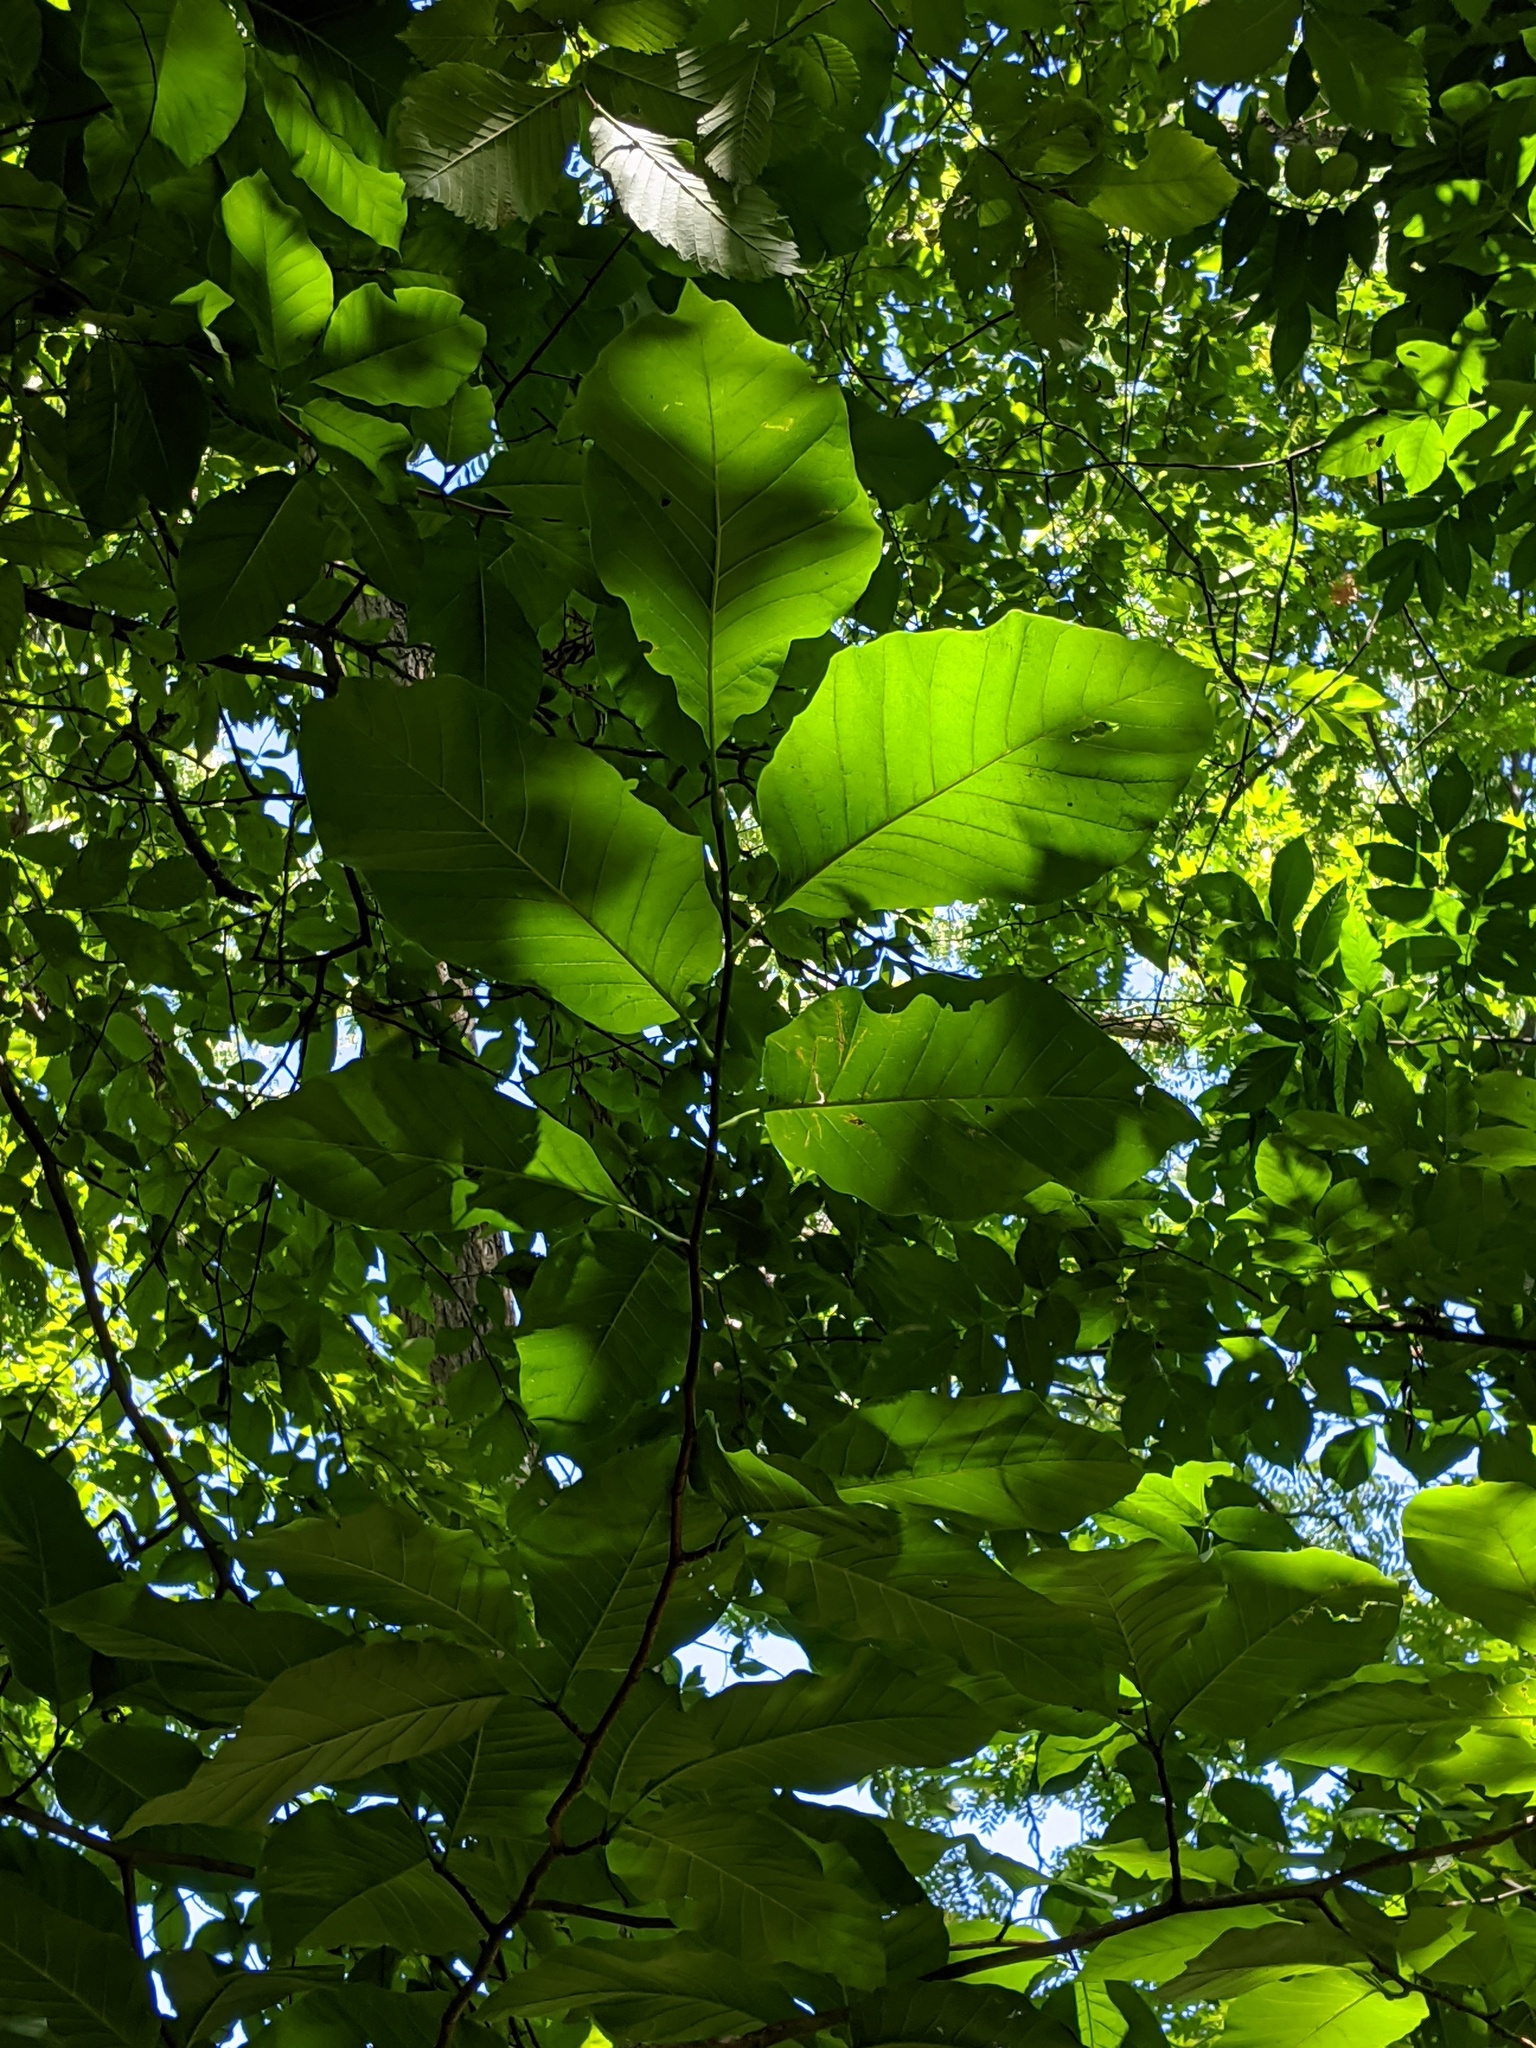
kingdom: Plantae
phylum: Tracheophyta
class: Magnoliopsida
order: Magnoliales
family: Magnoliaceae
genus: Magnolia
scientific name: Magnolia acuminata
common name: Cucumber magnolia
